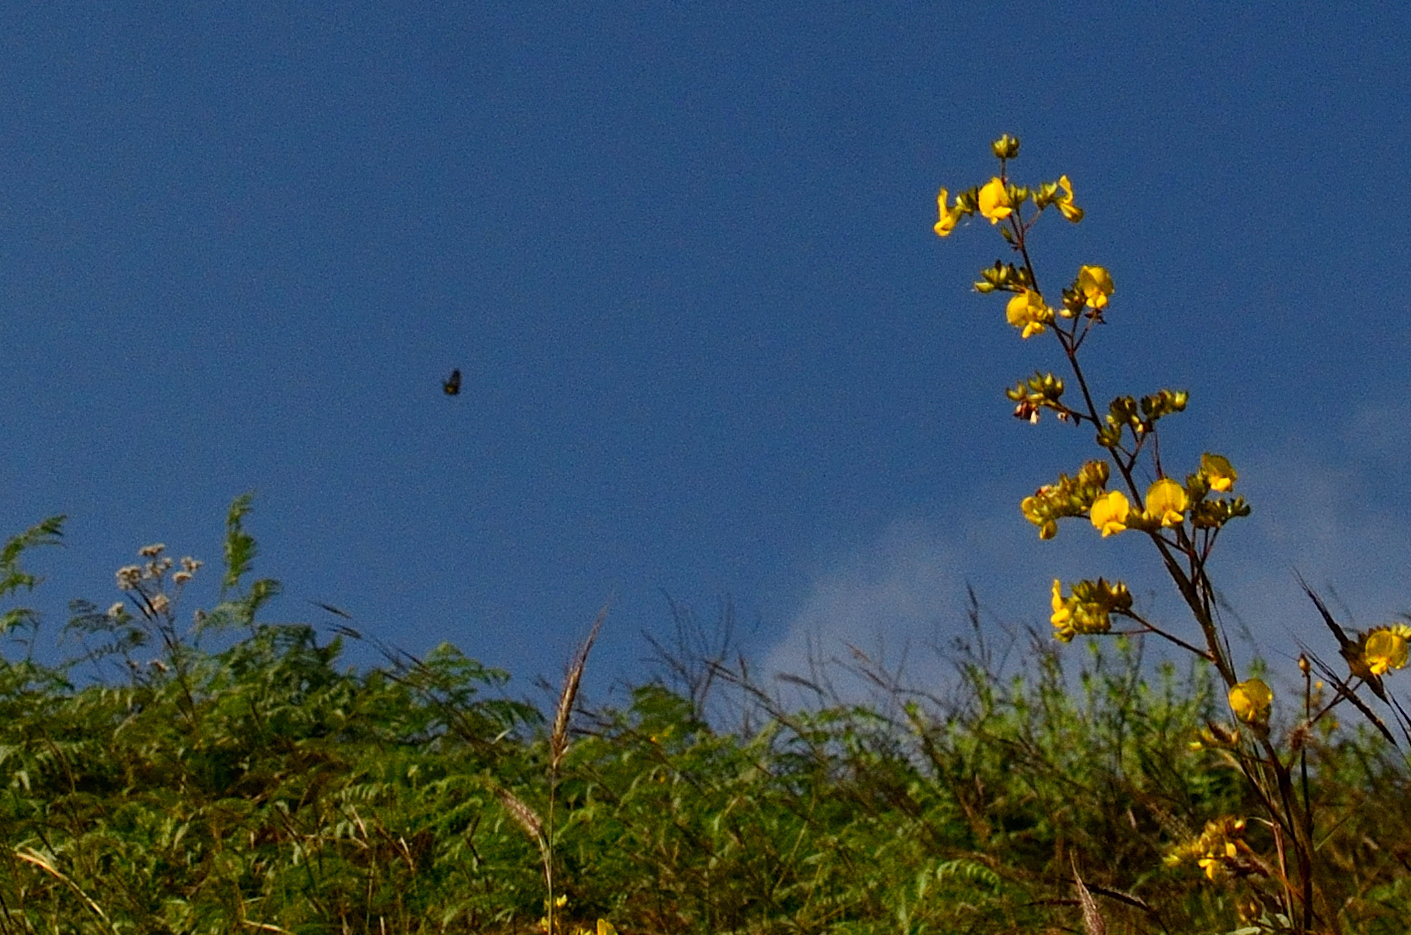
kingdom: Animalia
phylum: Arthropoda
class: Insecta
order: Lepidoptera
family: Papilionidae
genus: Troides
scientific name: Troides minos
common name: Malabar birdwing
